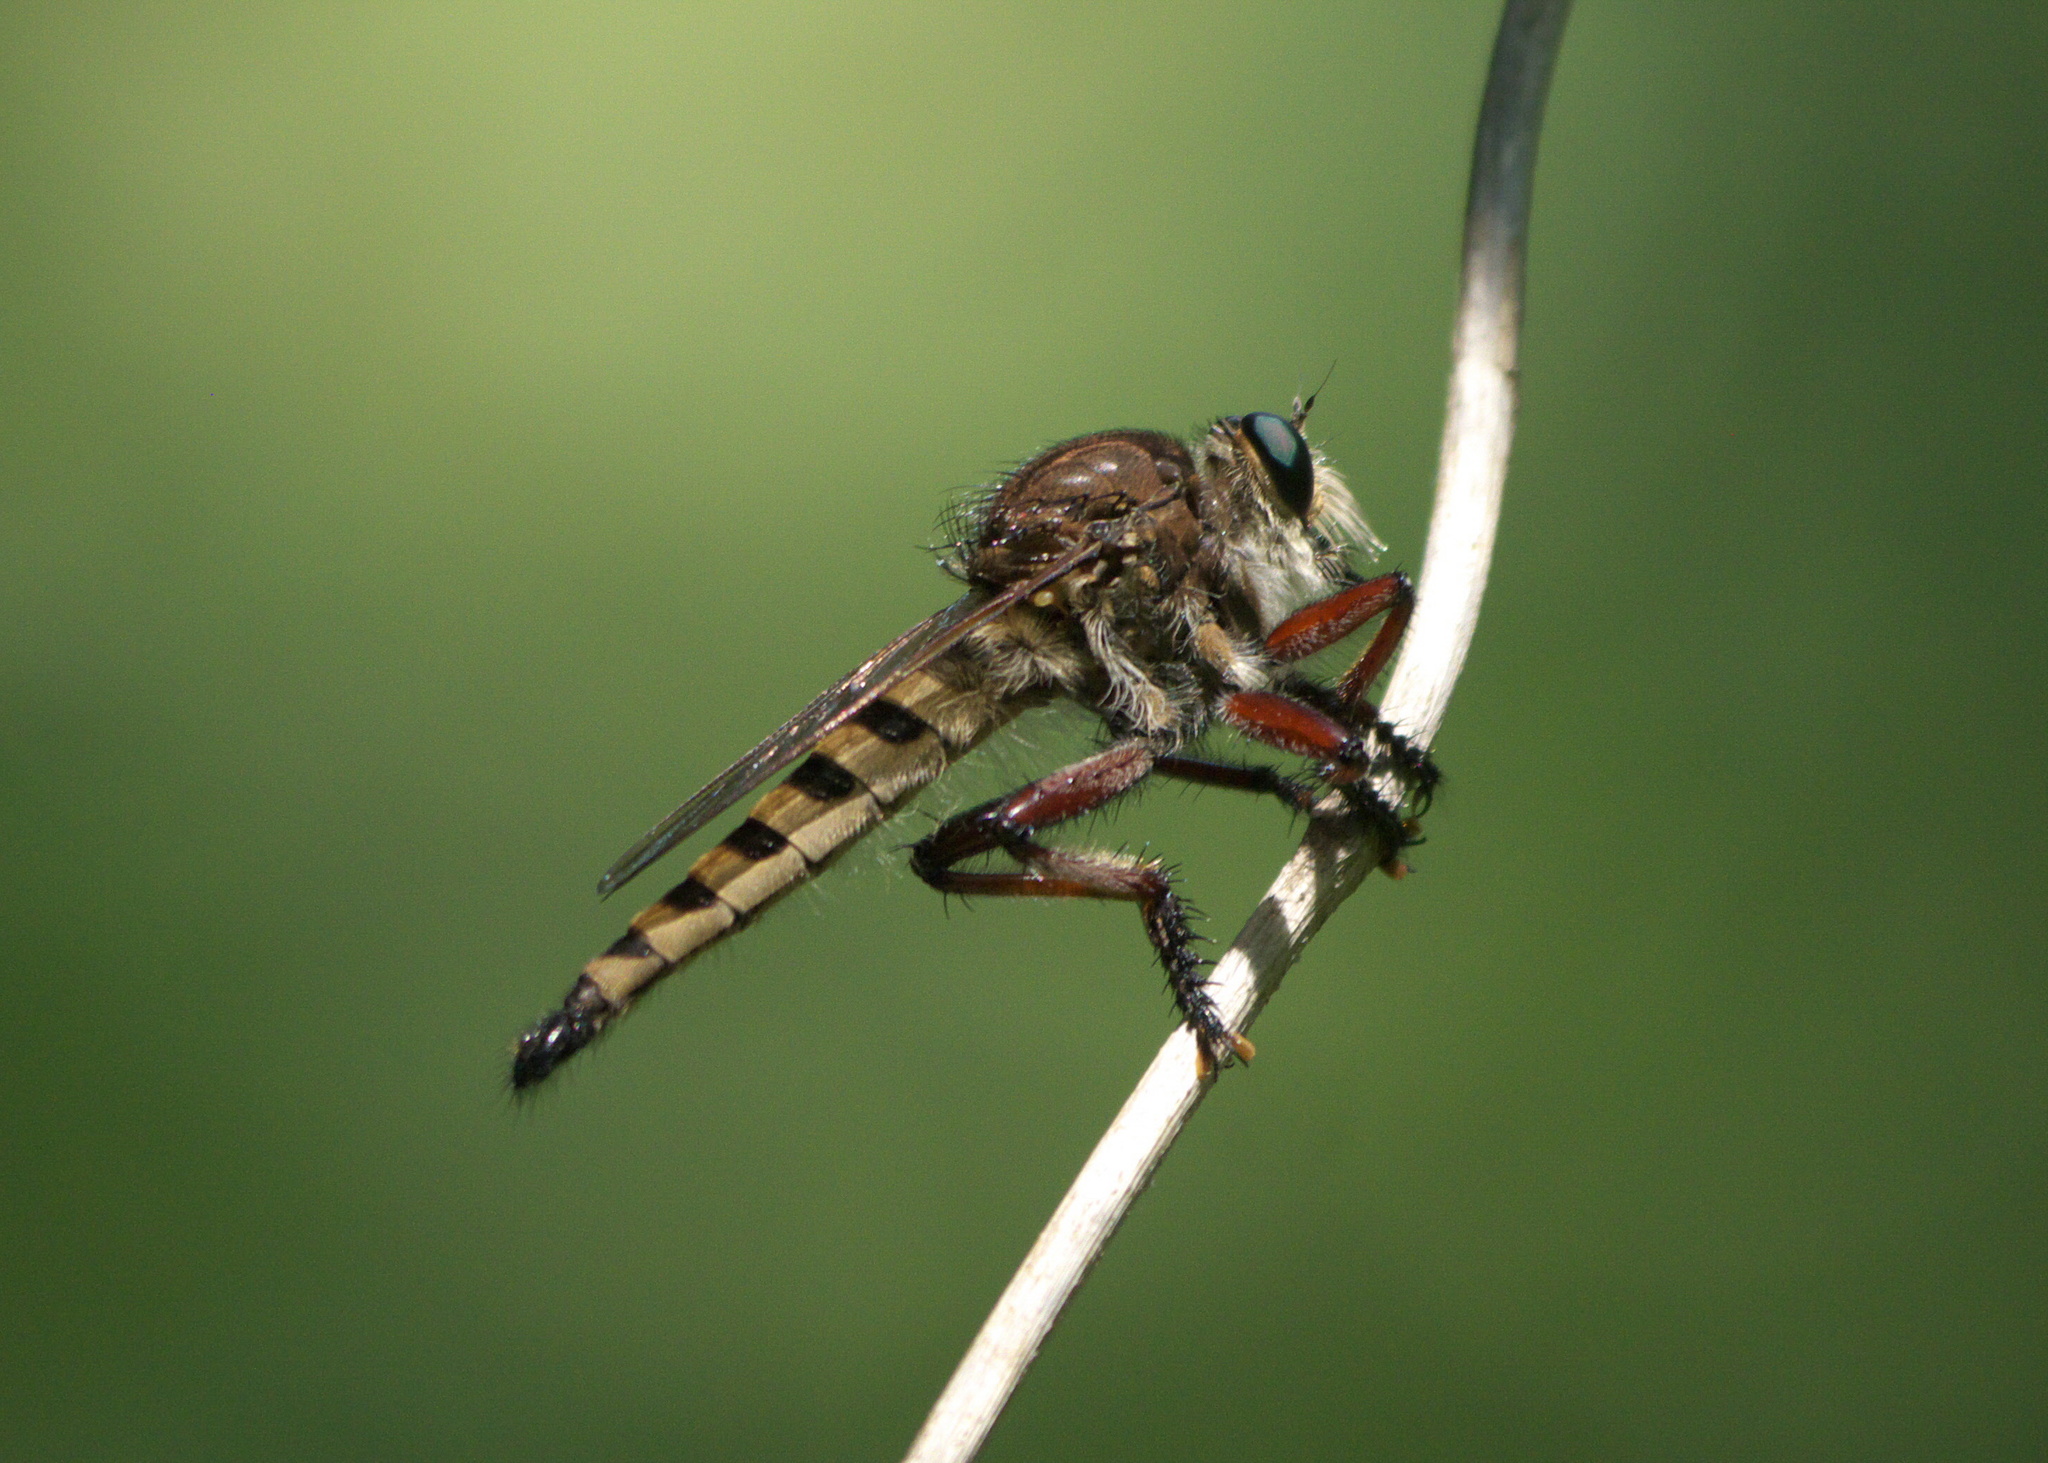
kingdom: Animalia
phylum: Arthropoda
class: Insecta
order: Diptera
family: Asilidae
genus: Promachus
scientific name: Promachus hinei
